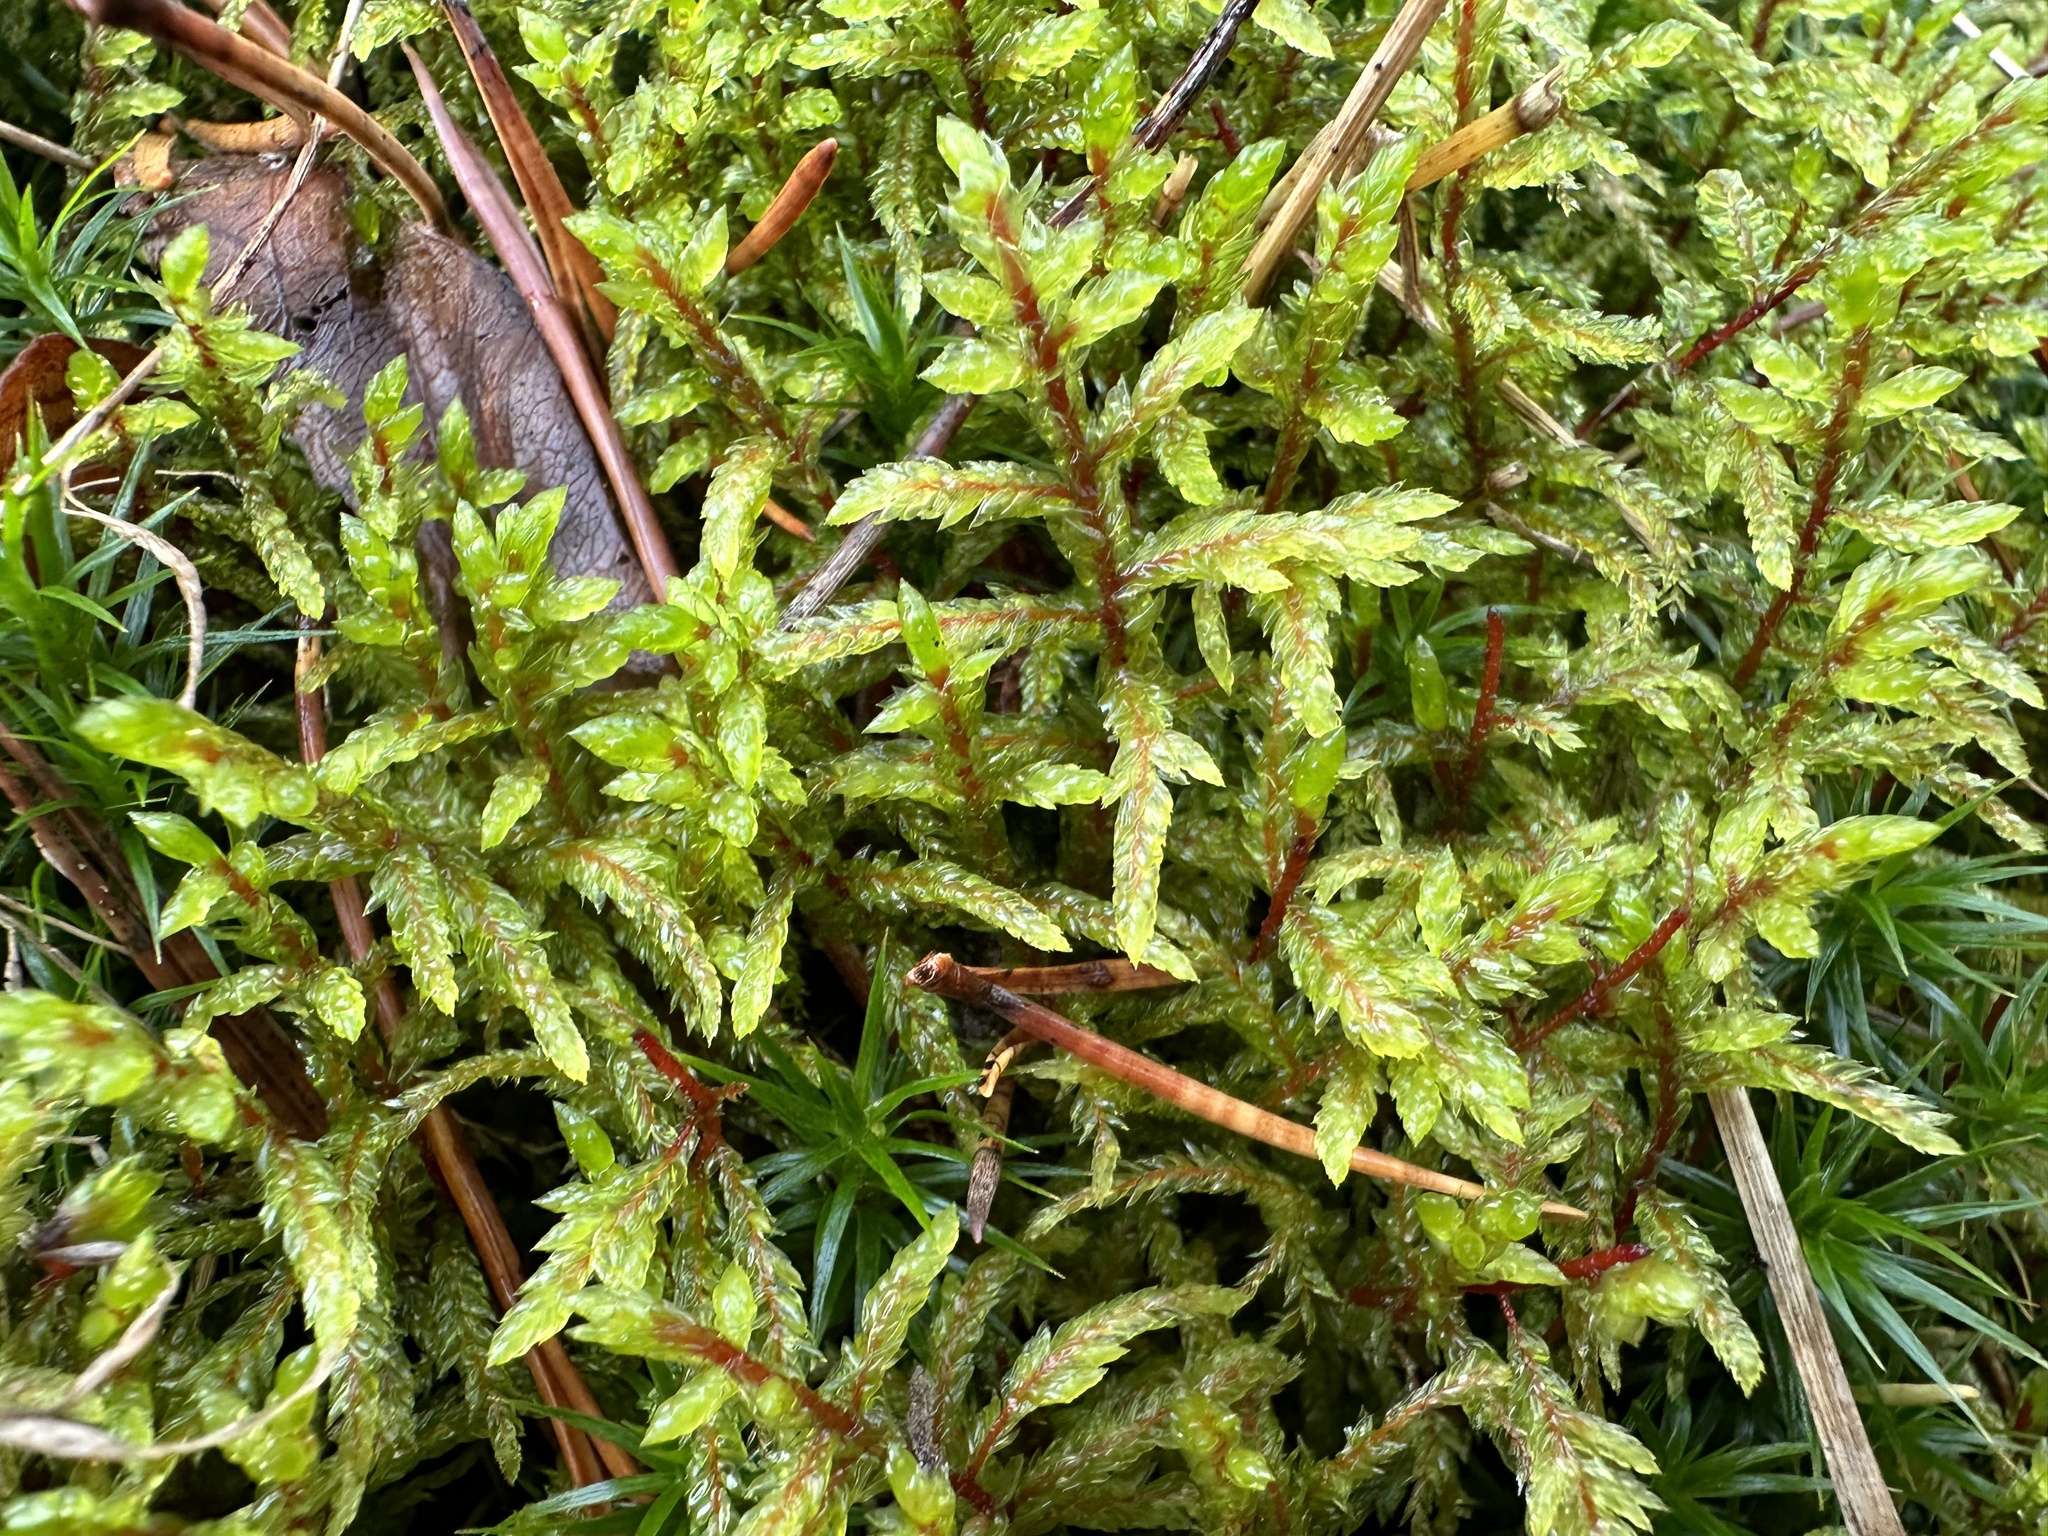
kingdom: Plantae
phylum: Bryophyta
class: Bryopsida
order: Hypnales
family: Hylocomiaceae
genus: Pleurozium
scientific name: Pleurozium schreberi
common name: Red-stemmed feather moss
